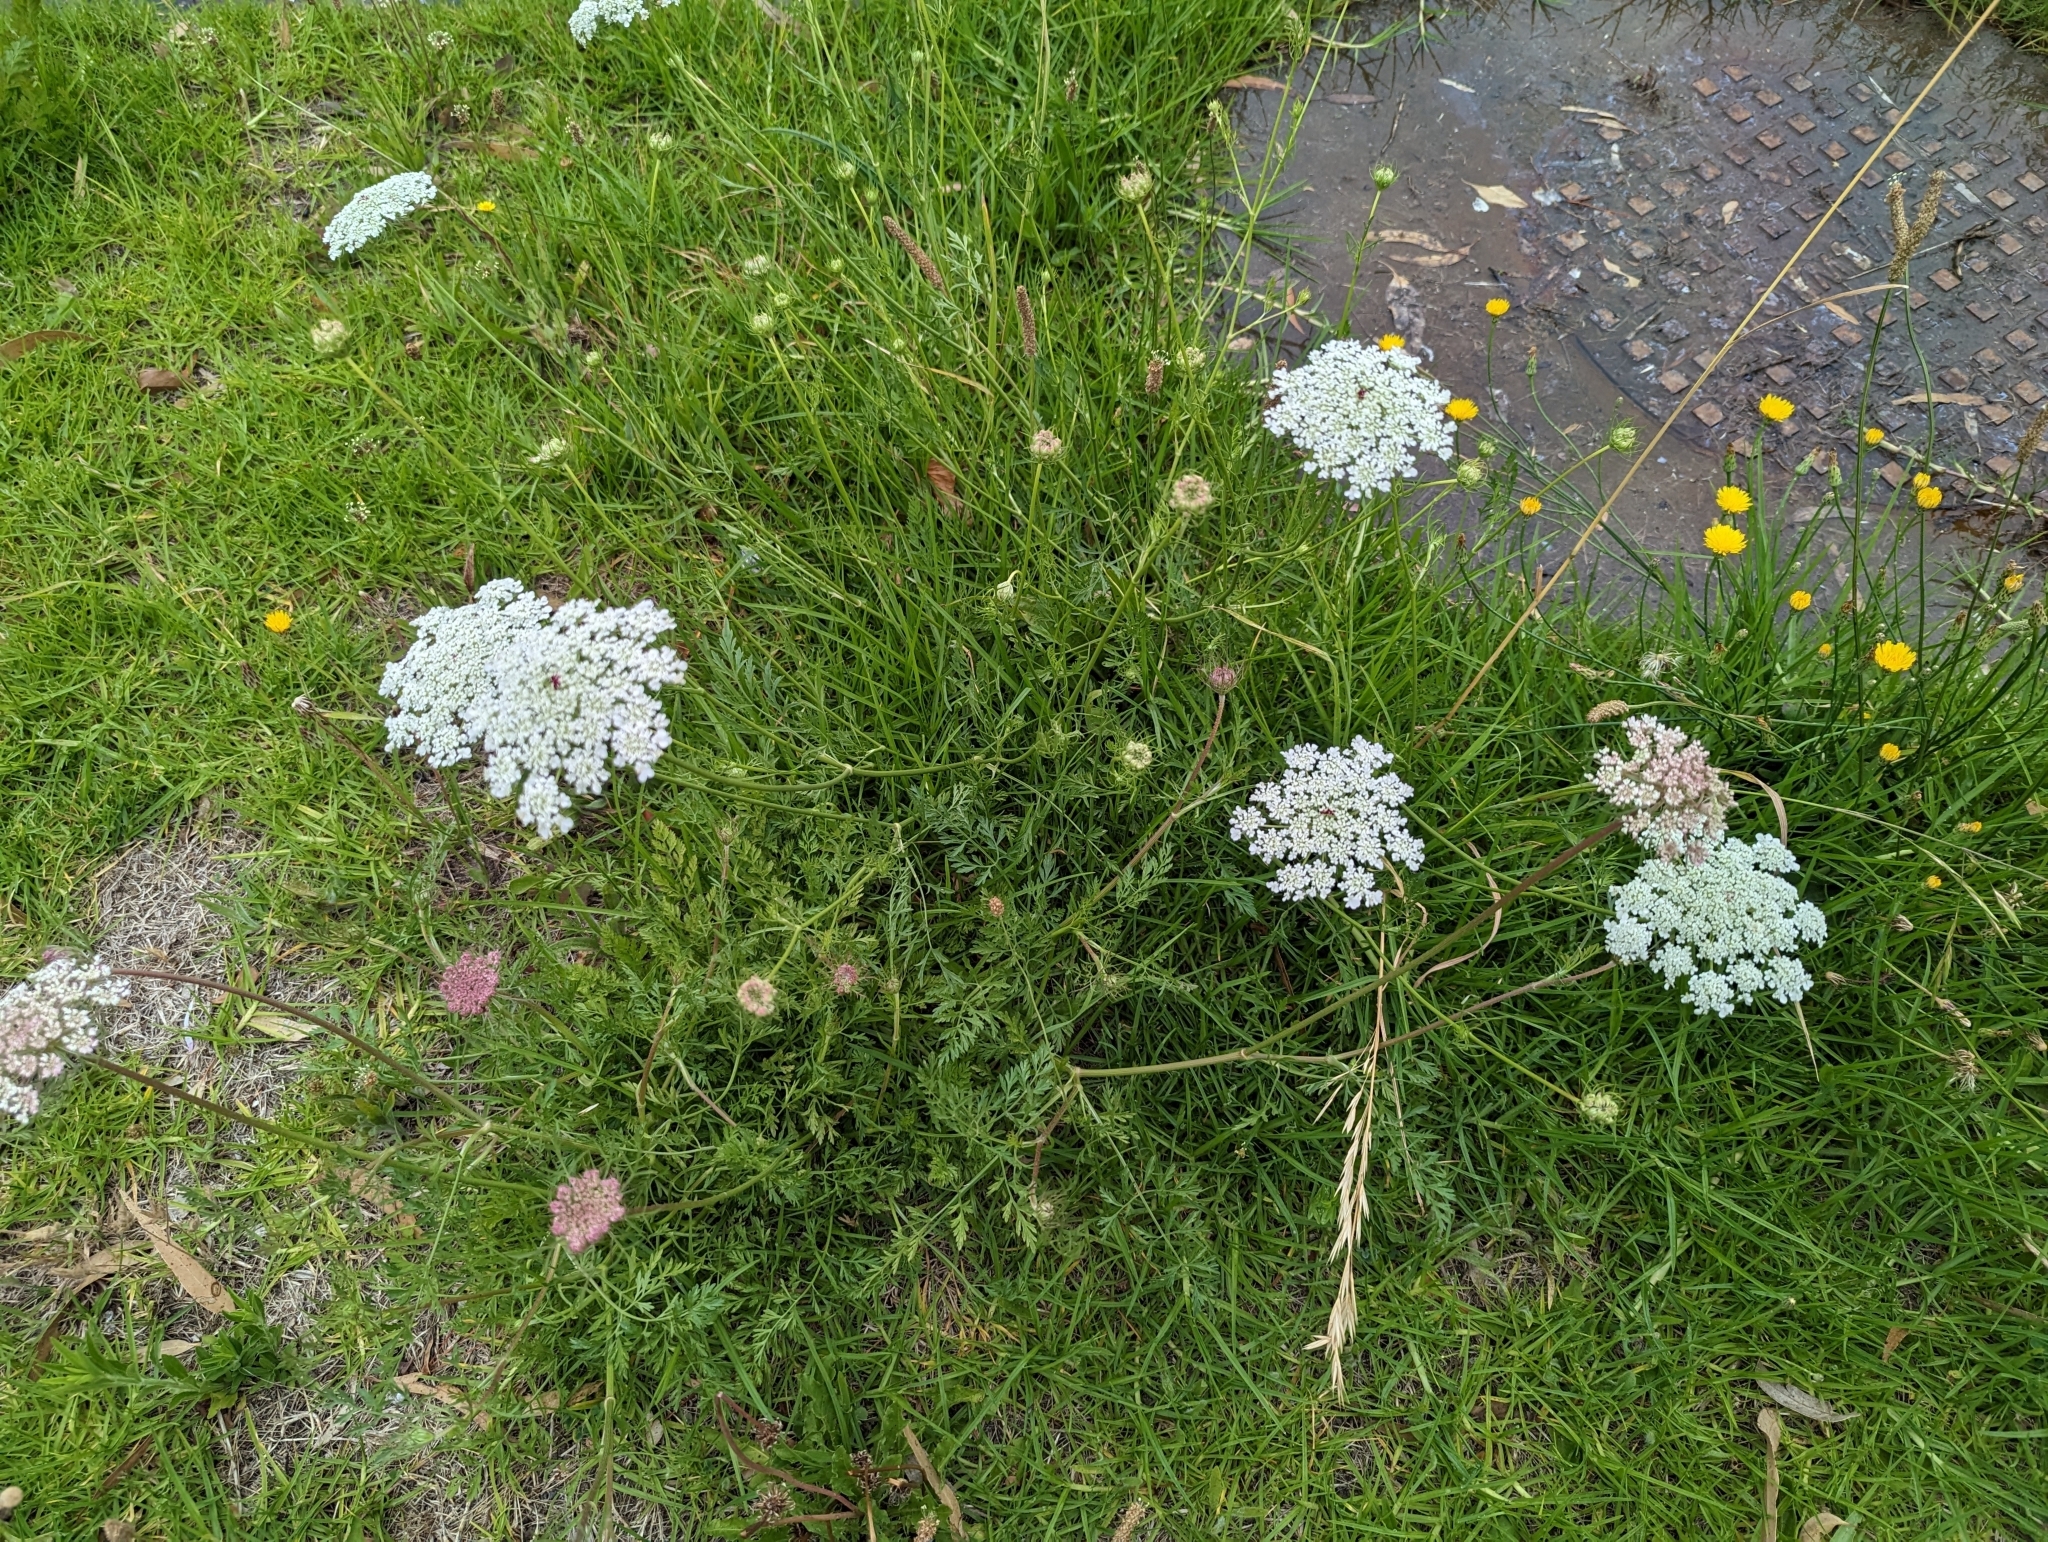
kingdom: Plantae
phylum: Tracheophyta
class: Magnoliopsida
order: Apiales
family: Apiaceae
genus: Daucus
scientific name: Daucus carota
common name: Wild carrot
